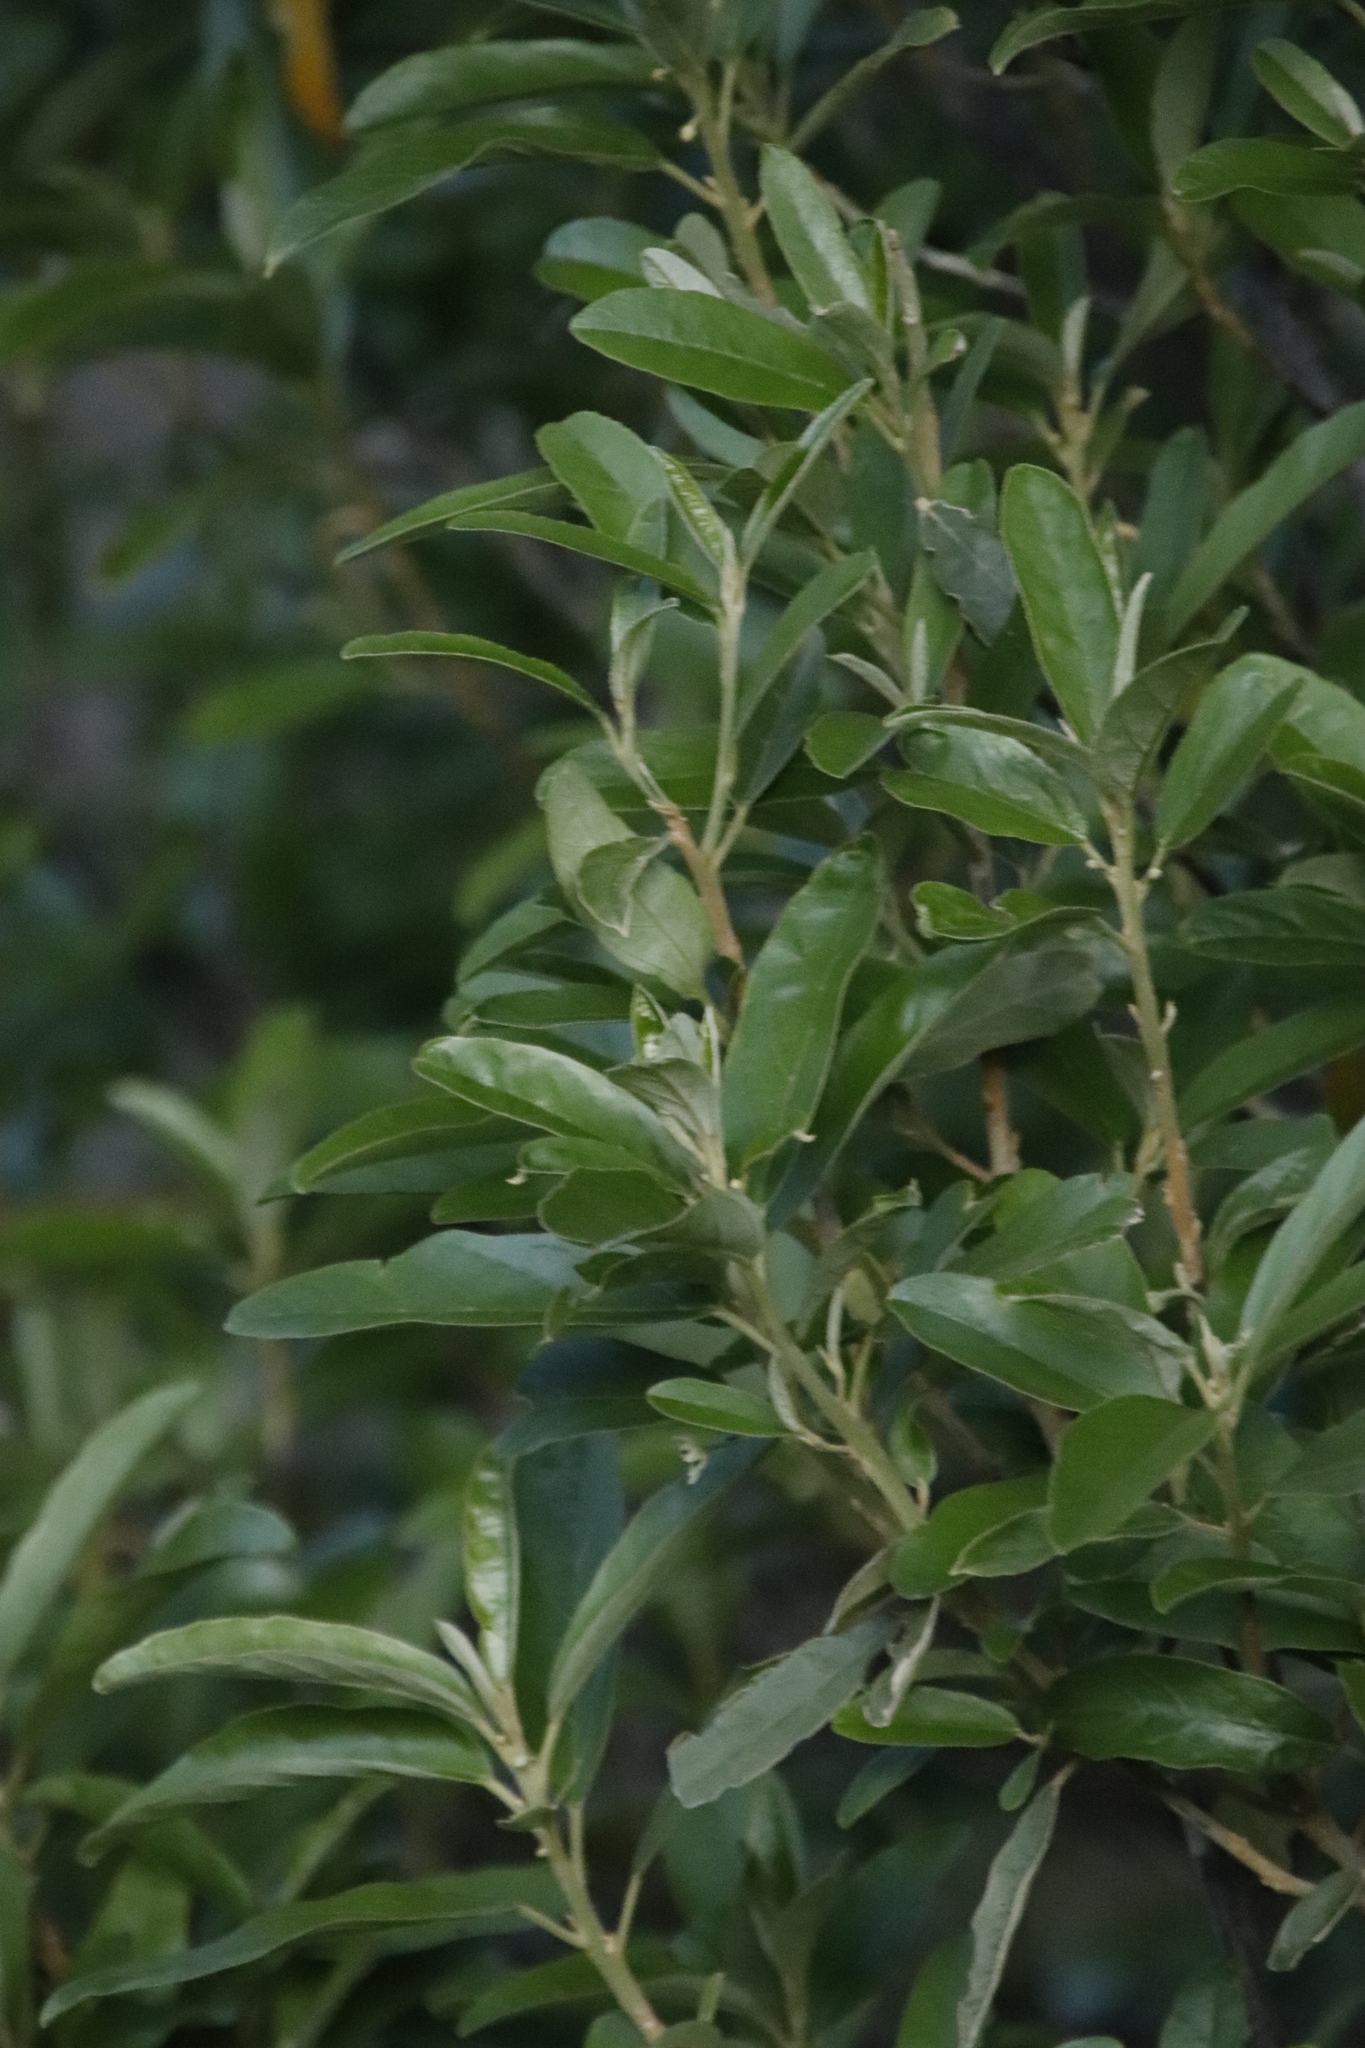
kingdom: Plantae
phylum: Tracheophyta
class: Magnoliopsida
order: Malpighiales
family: Achariaceae
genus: Kiggelaria
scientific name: Kiggelaria africana
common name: Wild peach
